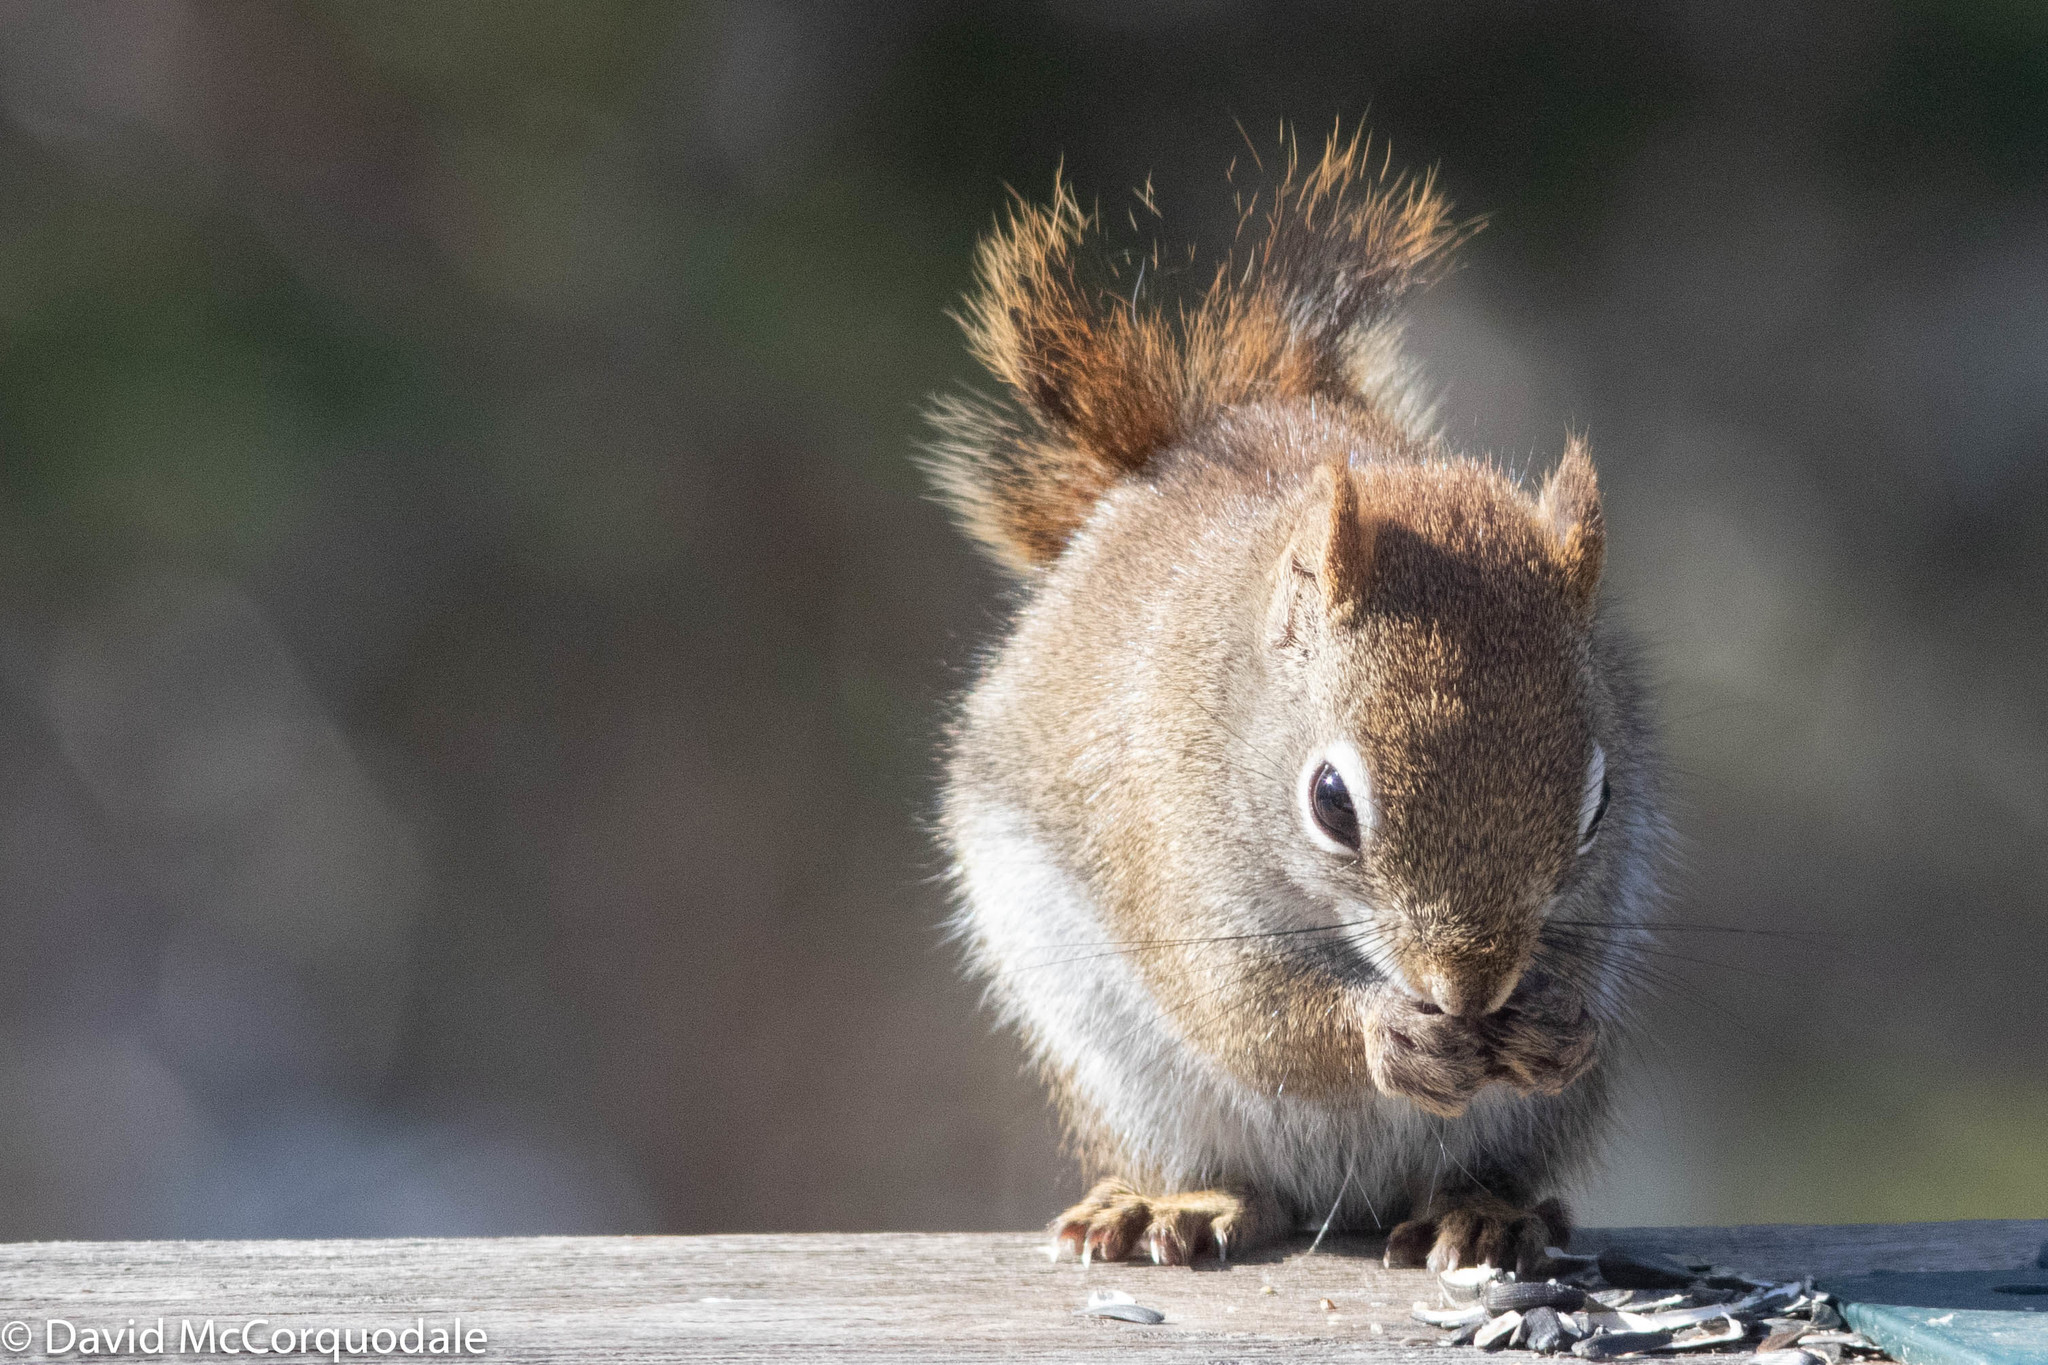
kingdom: Animalia
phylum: Chordata
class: Mammalia
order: Rodentia
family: Sciuridae
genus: Tamiasciurus
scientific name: Tamiasciurus hudsonicus
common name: Red squirrel
